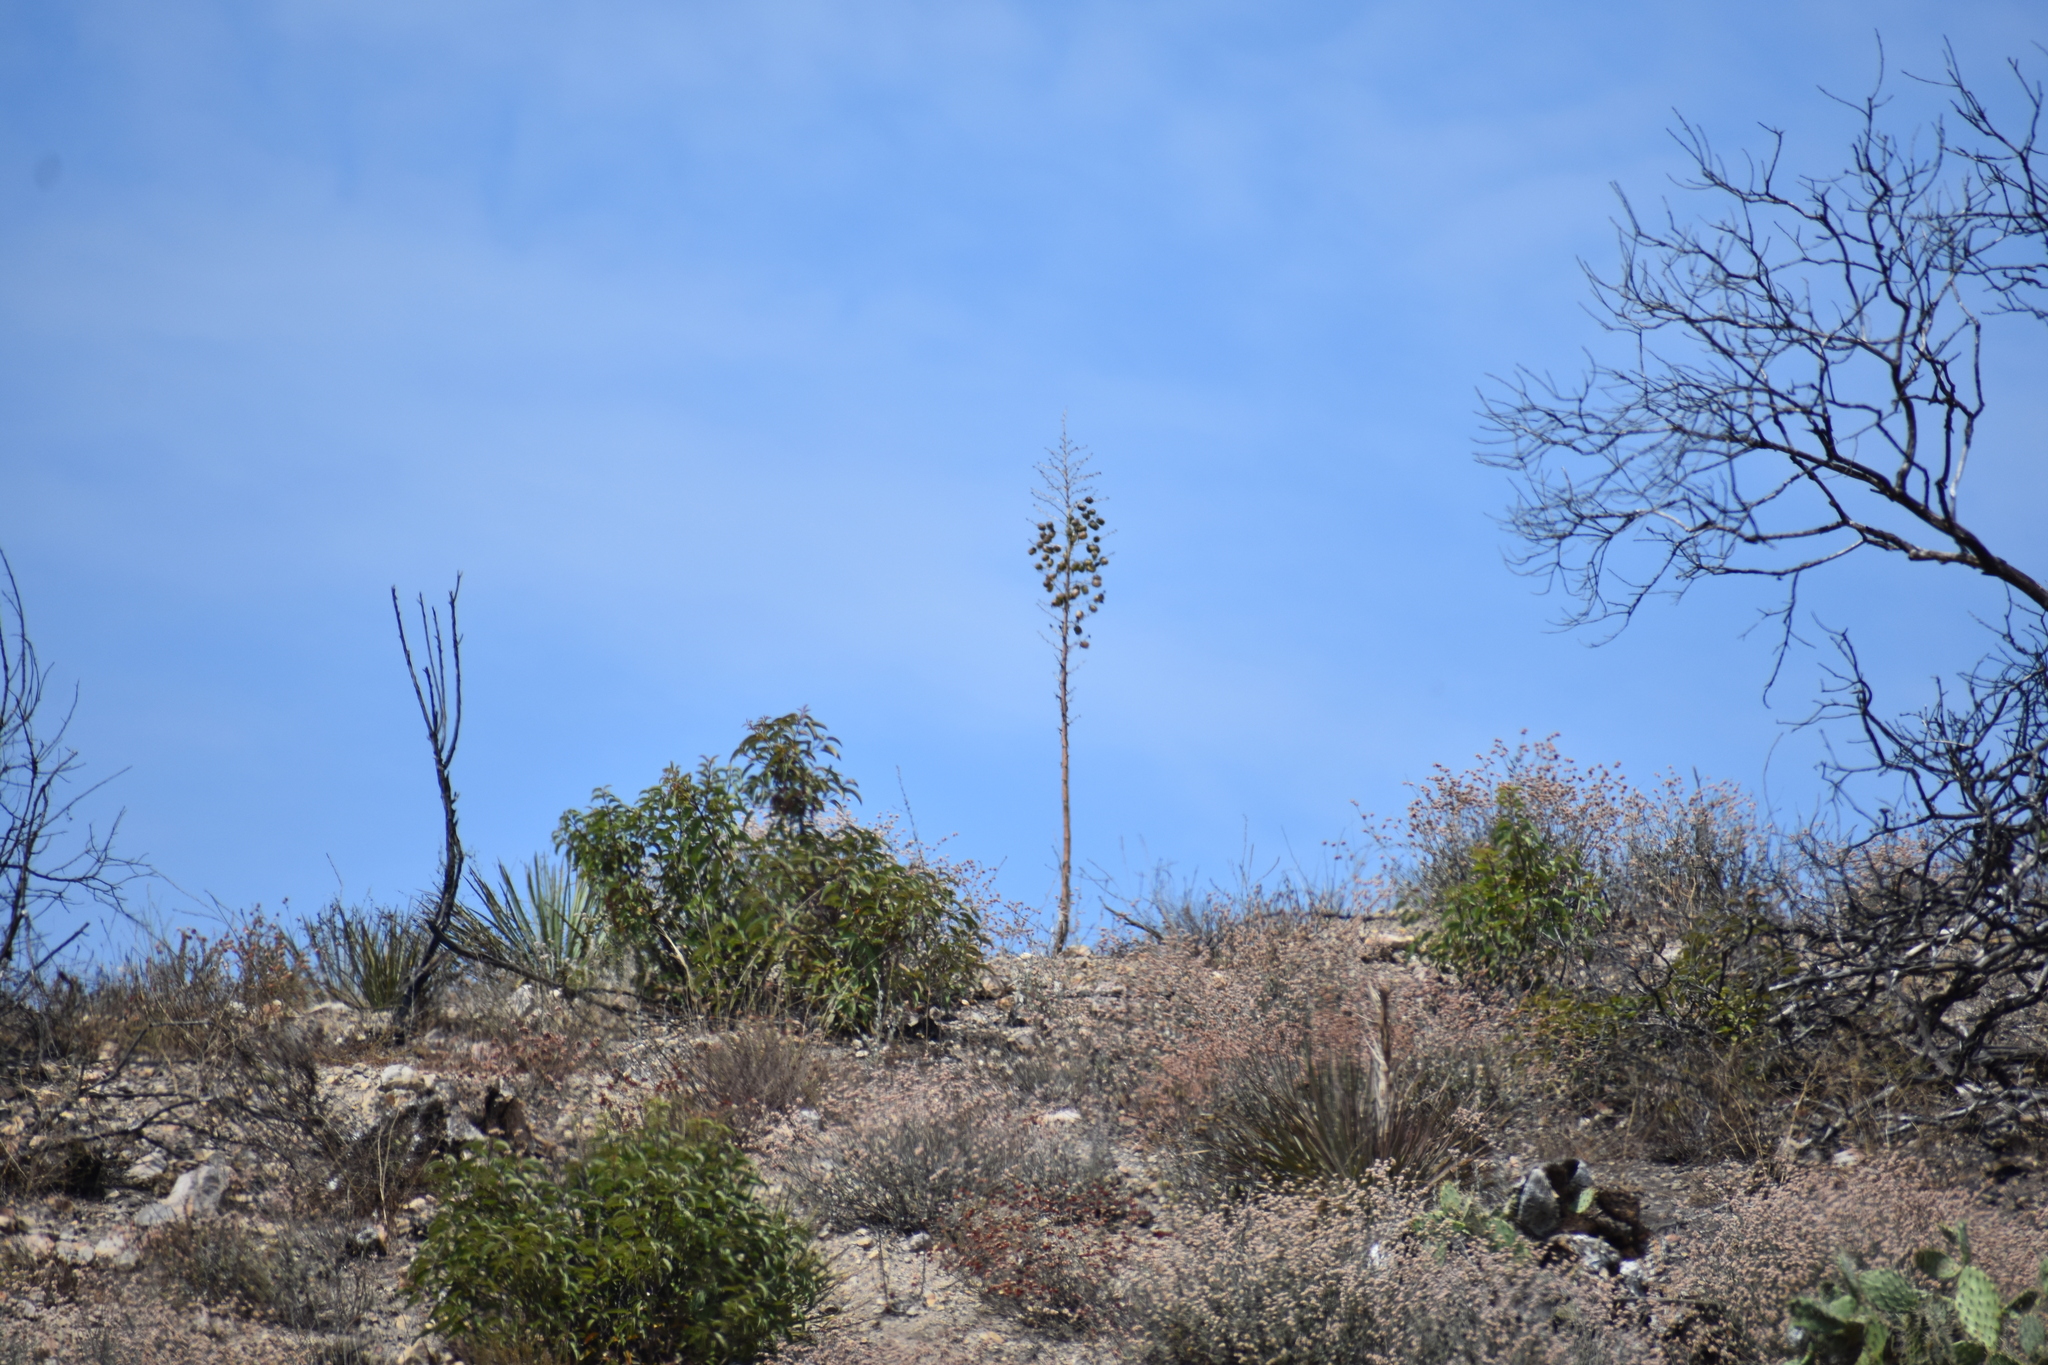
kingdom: Plantae
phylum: Tracheophyta
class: Liliopsida
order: Asparagales
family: Asparagaceae
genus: Hesperoyucca
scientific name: Hesperoyucca whipplei
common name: Our lord's-candle
